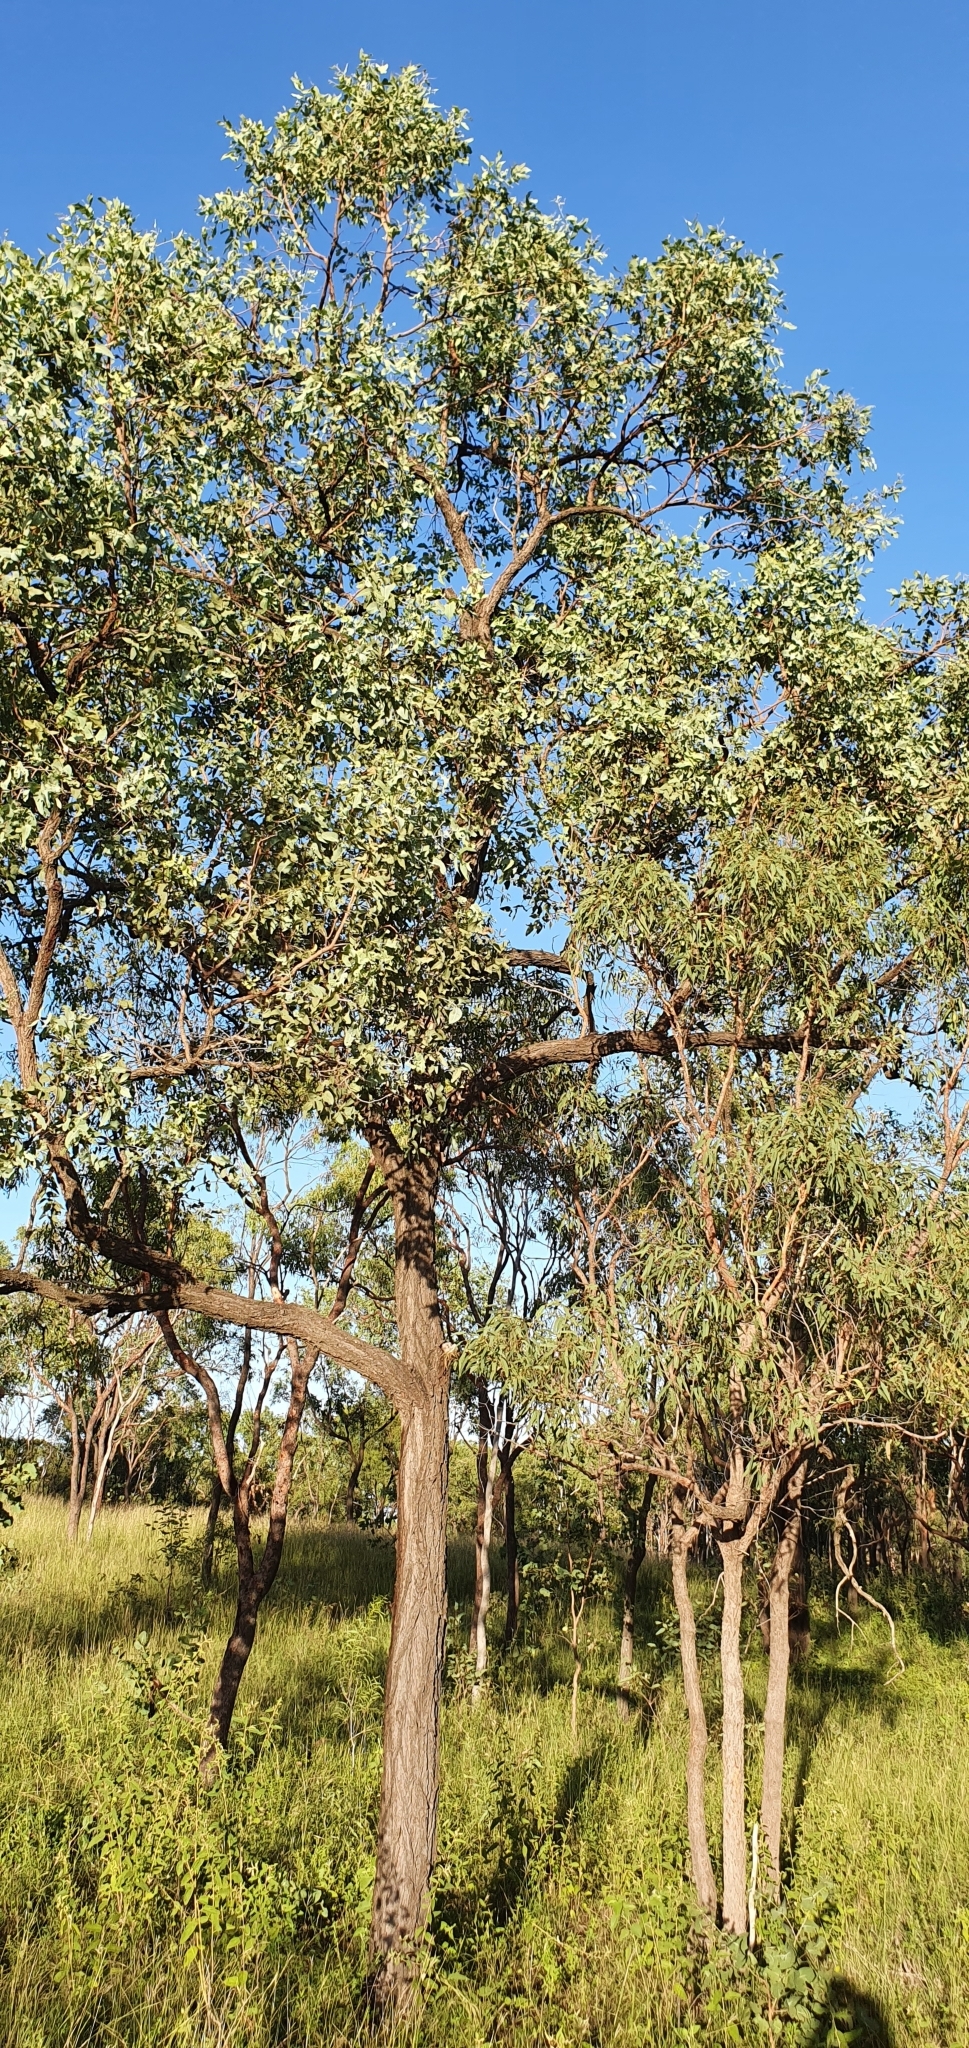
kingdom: Plantae
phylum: Tracheophyta
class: Magnoliopsida
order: Myrtales
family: Myrtaceae
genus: Eucalyptus
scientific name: Eucalyptus melanophloia
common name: Silver-leaved-ironbark
